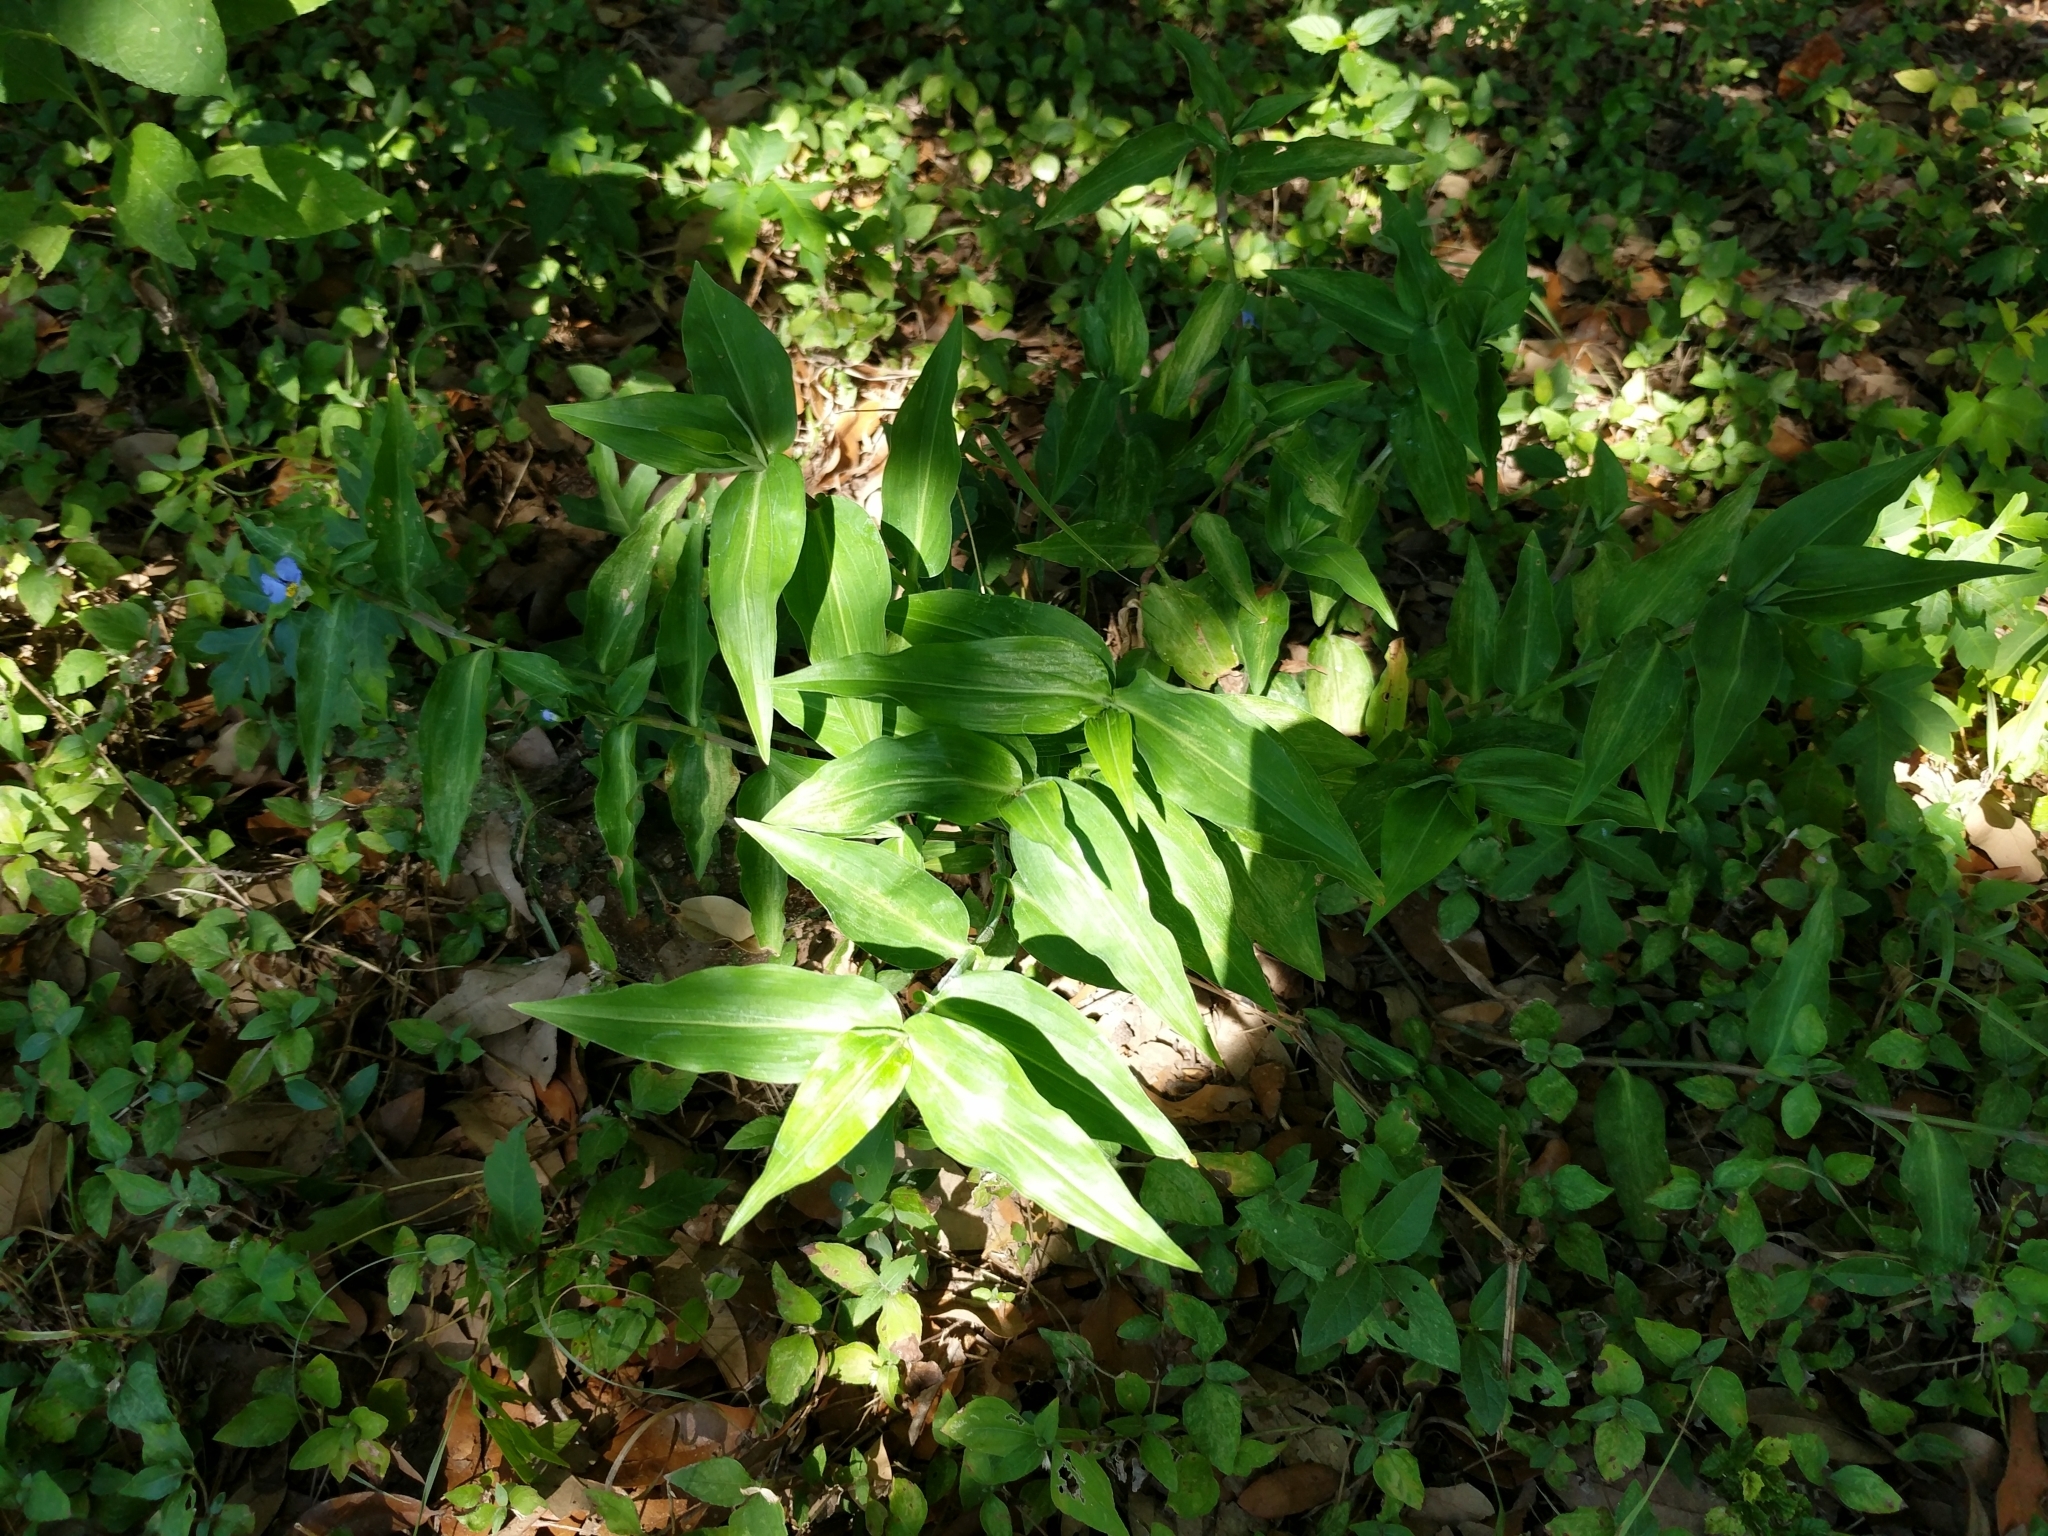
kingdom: Plantae
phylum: Tracheophyta
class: Liliopsida
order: Commelinales
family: Commelinaceae
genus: Commelina
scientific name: Commelina erecta
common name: Blousel blommetjie
